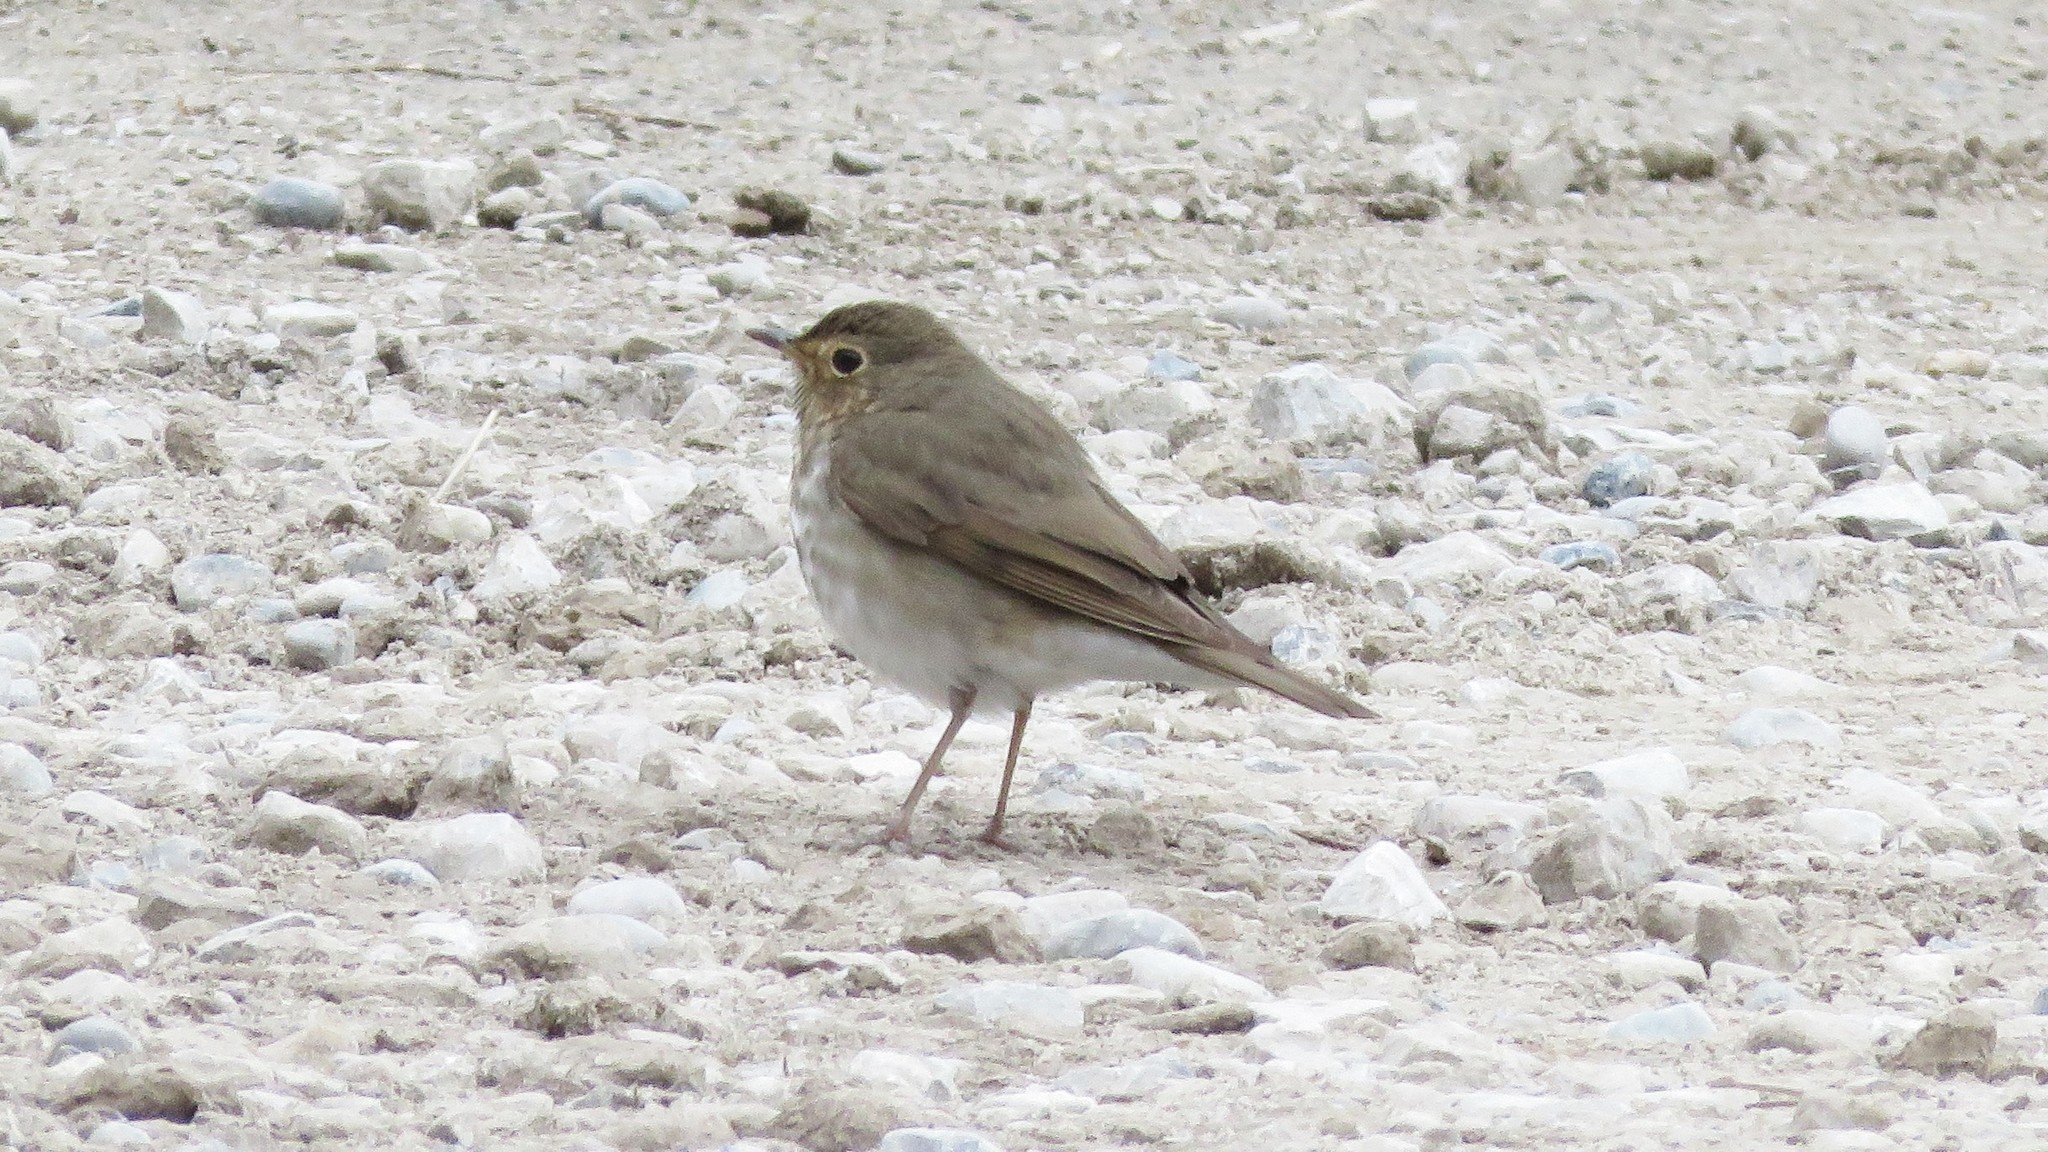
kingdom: Animalia
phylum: Chordata
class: Aves
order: Passeriformes
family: Turdidae
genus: Catharus
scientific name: Catharus ustulatus
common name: Swainson's thrush
